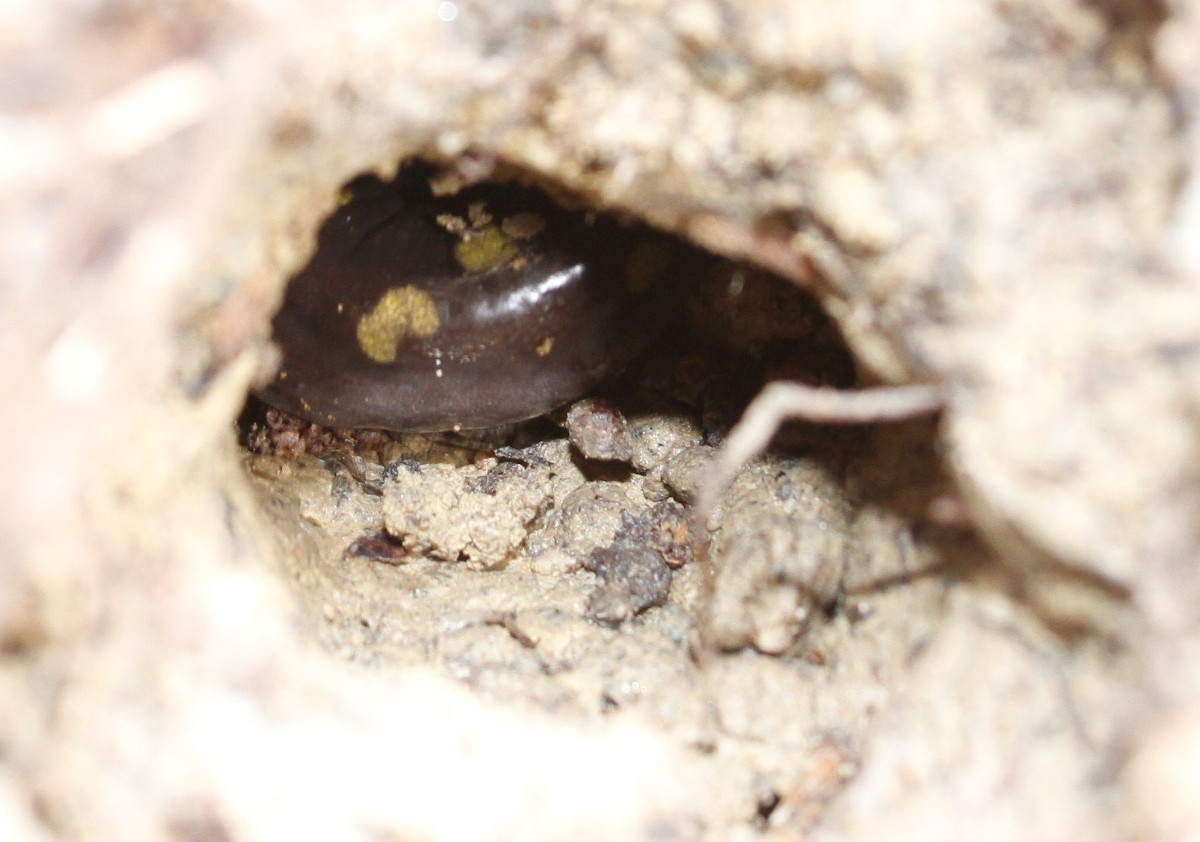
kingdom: Animalia
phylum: Chordata
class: Amphibia
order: Caudata
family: Ambystomatidae
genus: Ambystoma
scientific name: Ambystoma maculatum
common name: Spotted salamander
